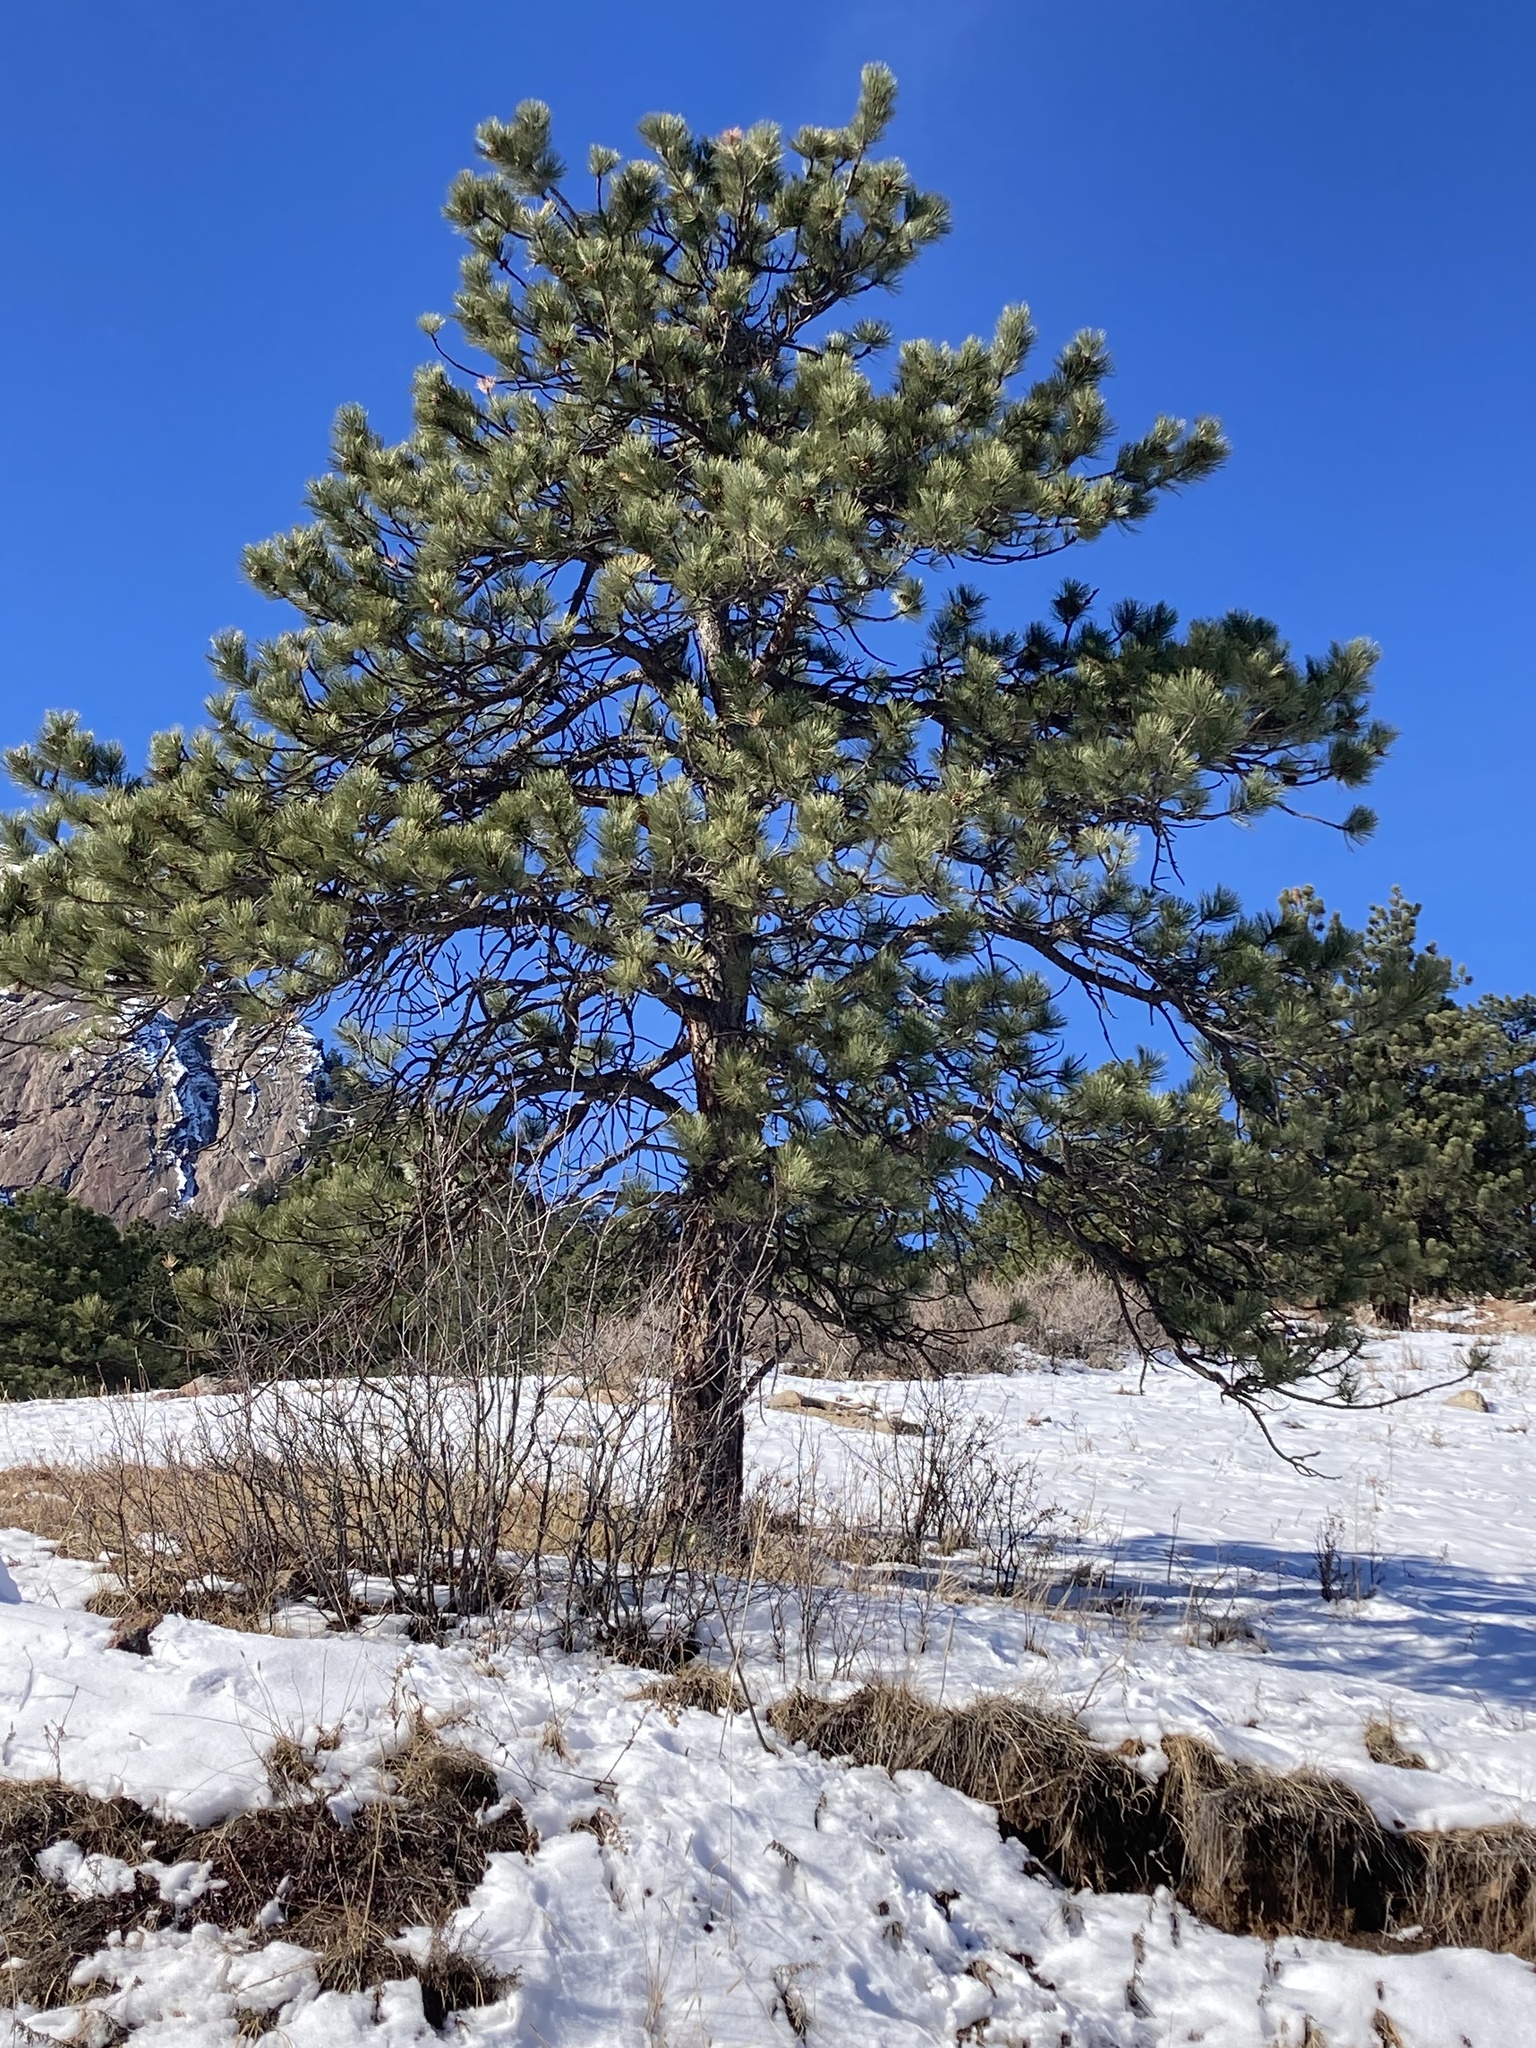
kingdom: Plantae
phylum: Tracheophyta
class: Pinopsida
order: Pinales
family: Pinaceae
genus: Pinus
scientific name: Pinus ponderosa
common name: Western yellow-pine
